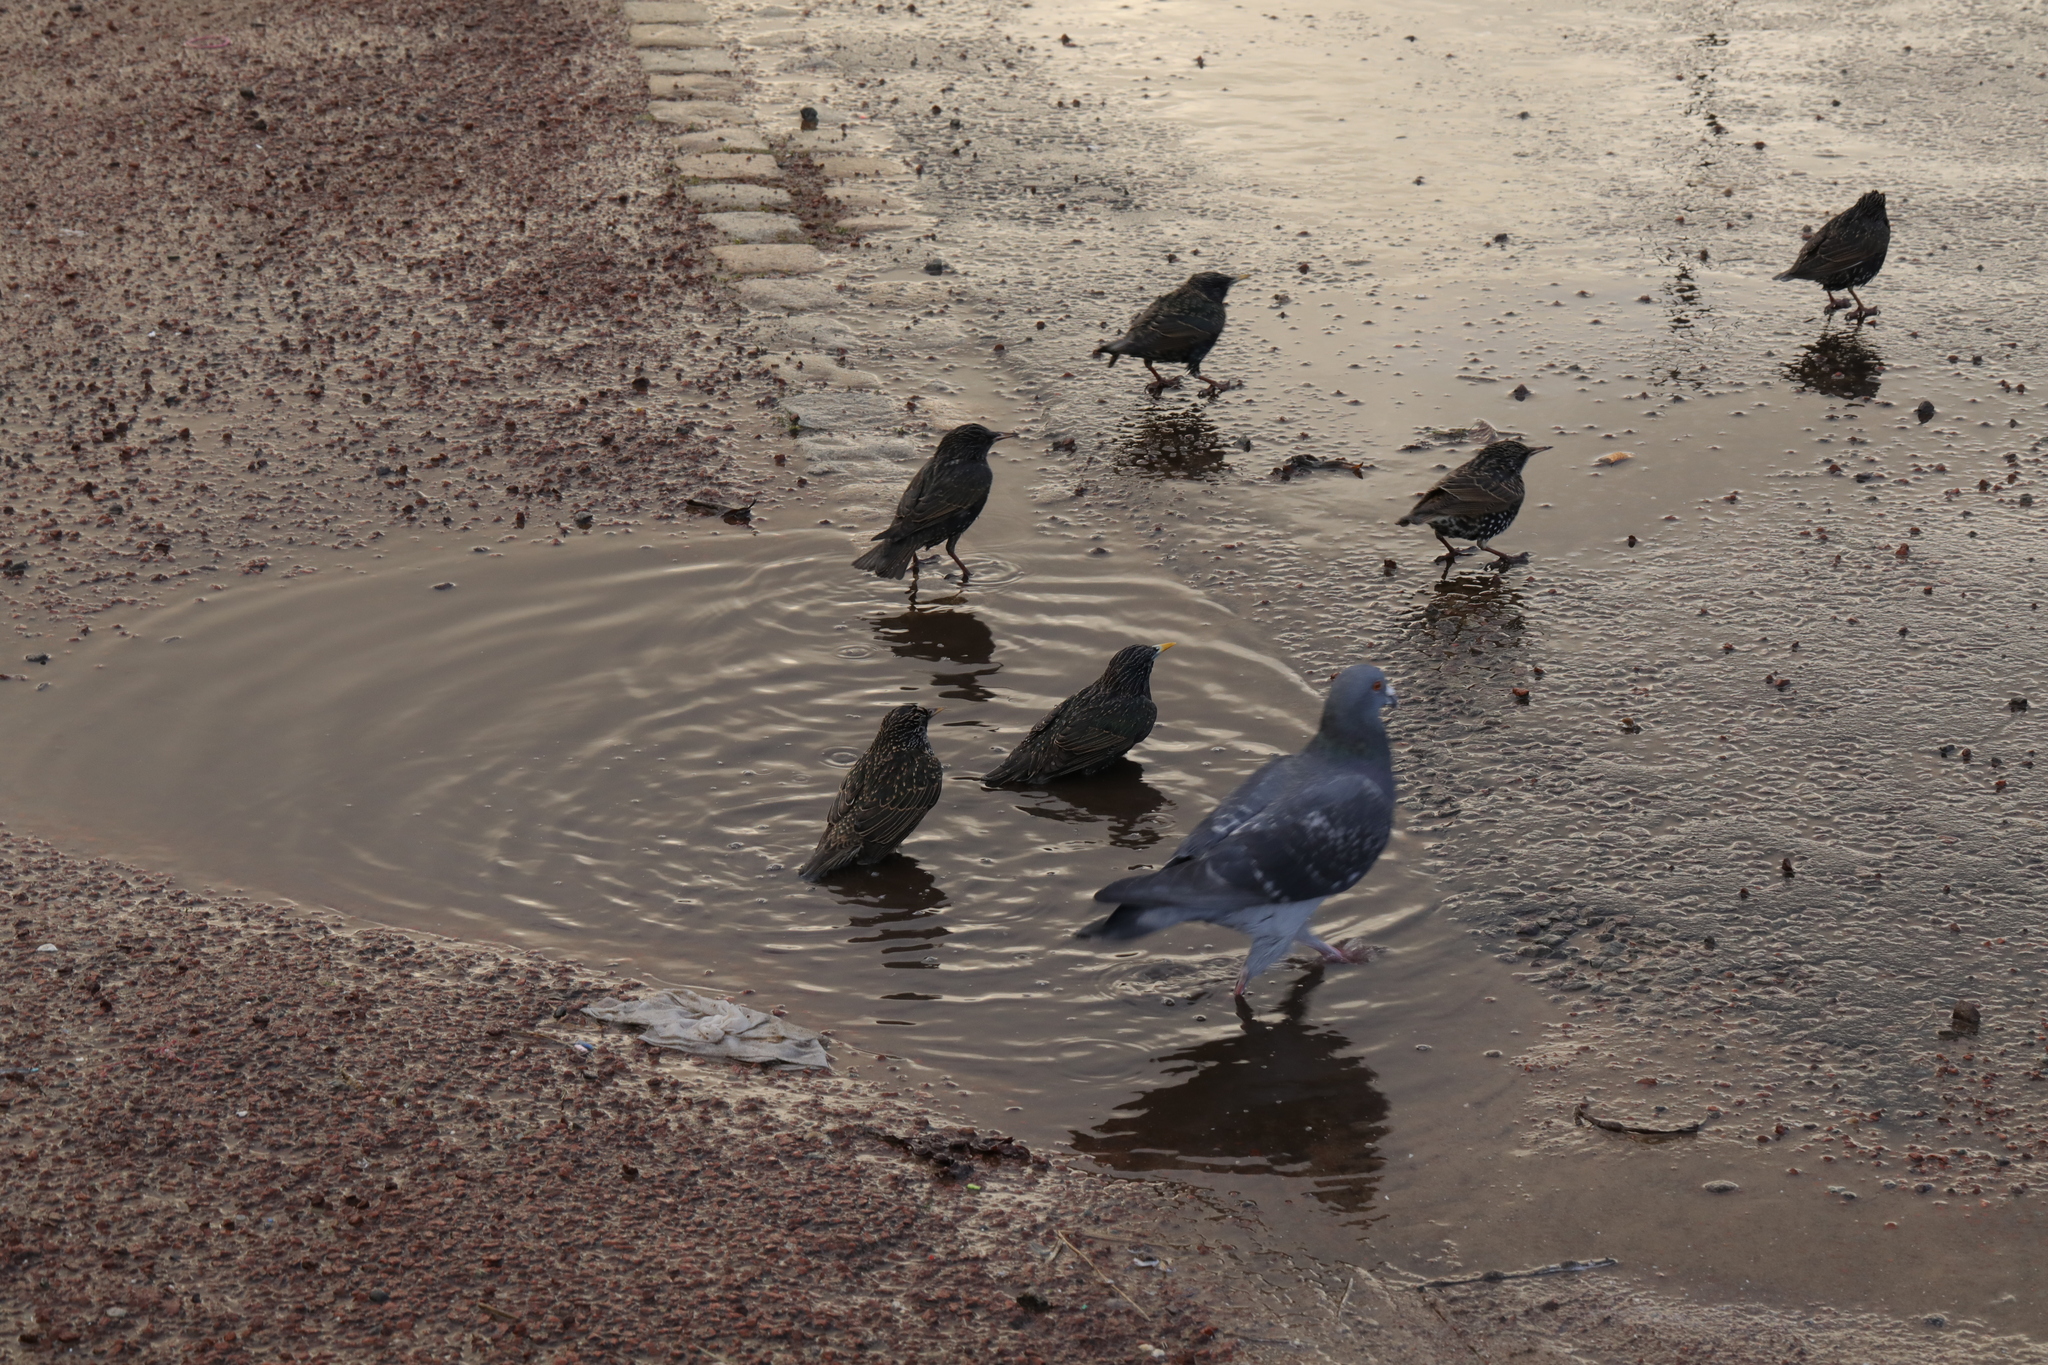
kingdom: Animalia
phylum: Chordata
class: Aves
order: Columbiformes
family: Columbidae
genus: Columba
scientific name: Columba livia
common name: Rock pigeon
